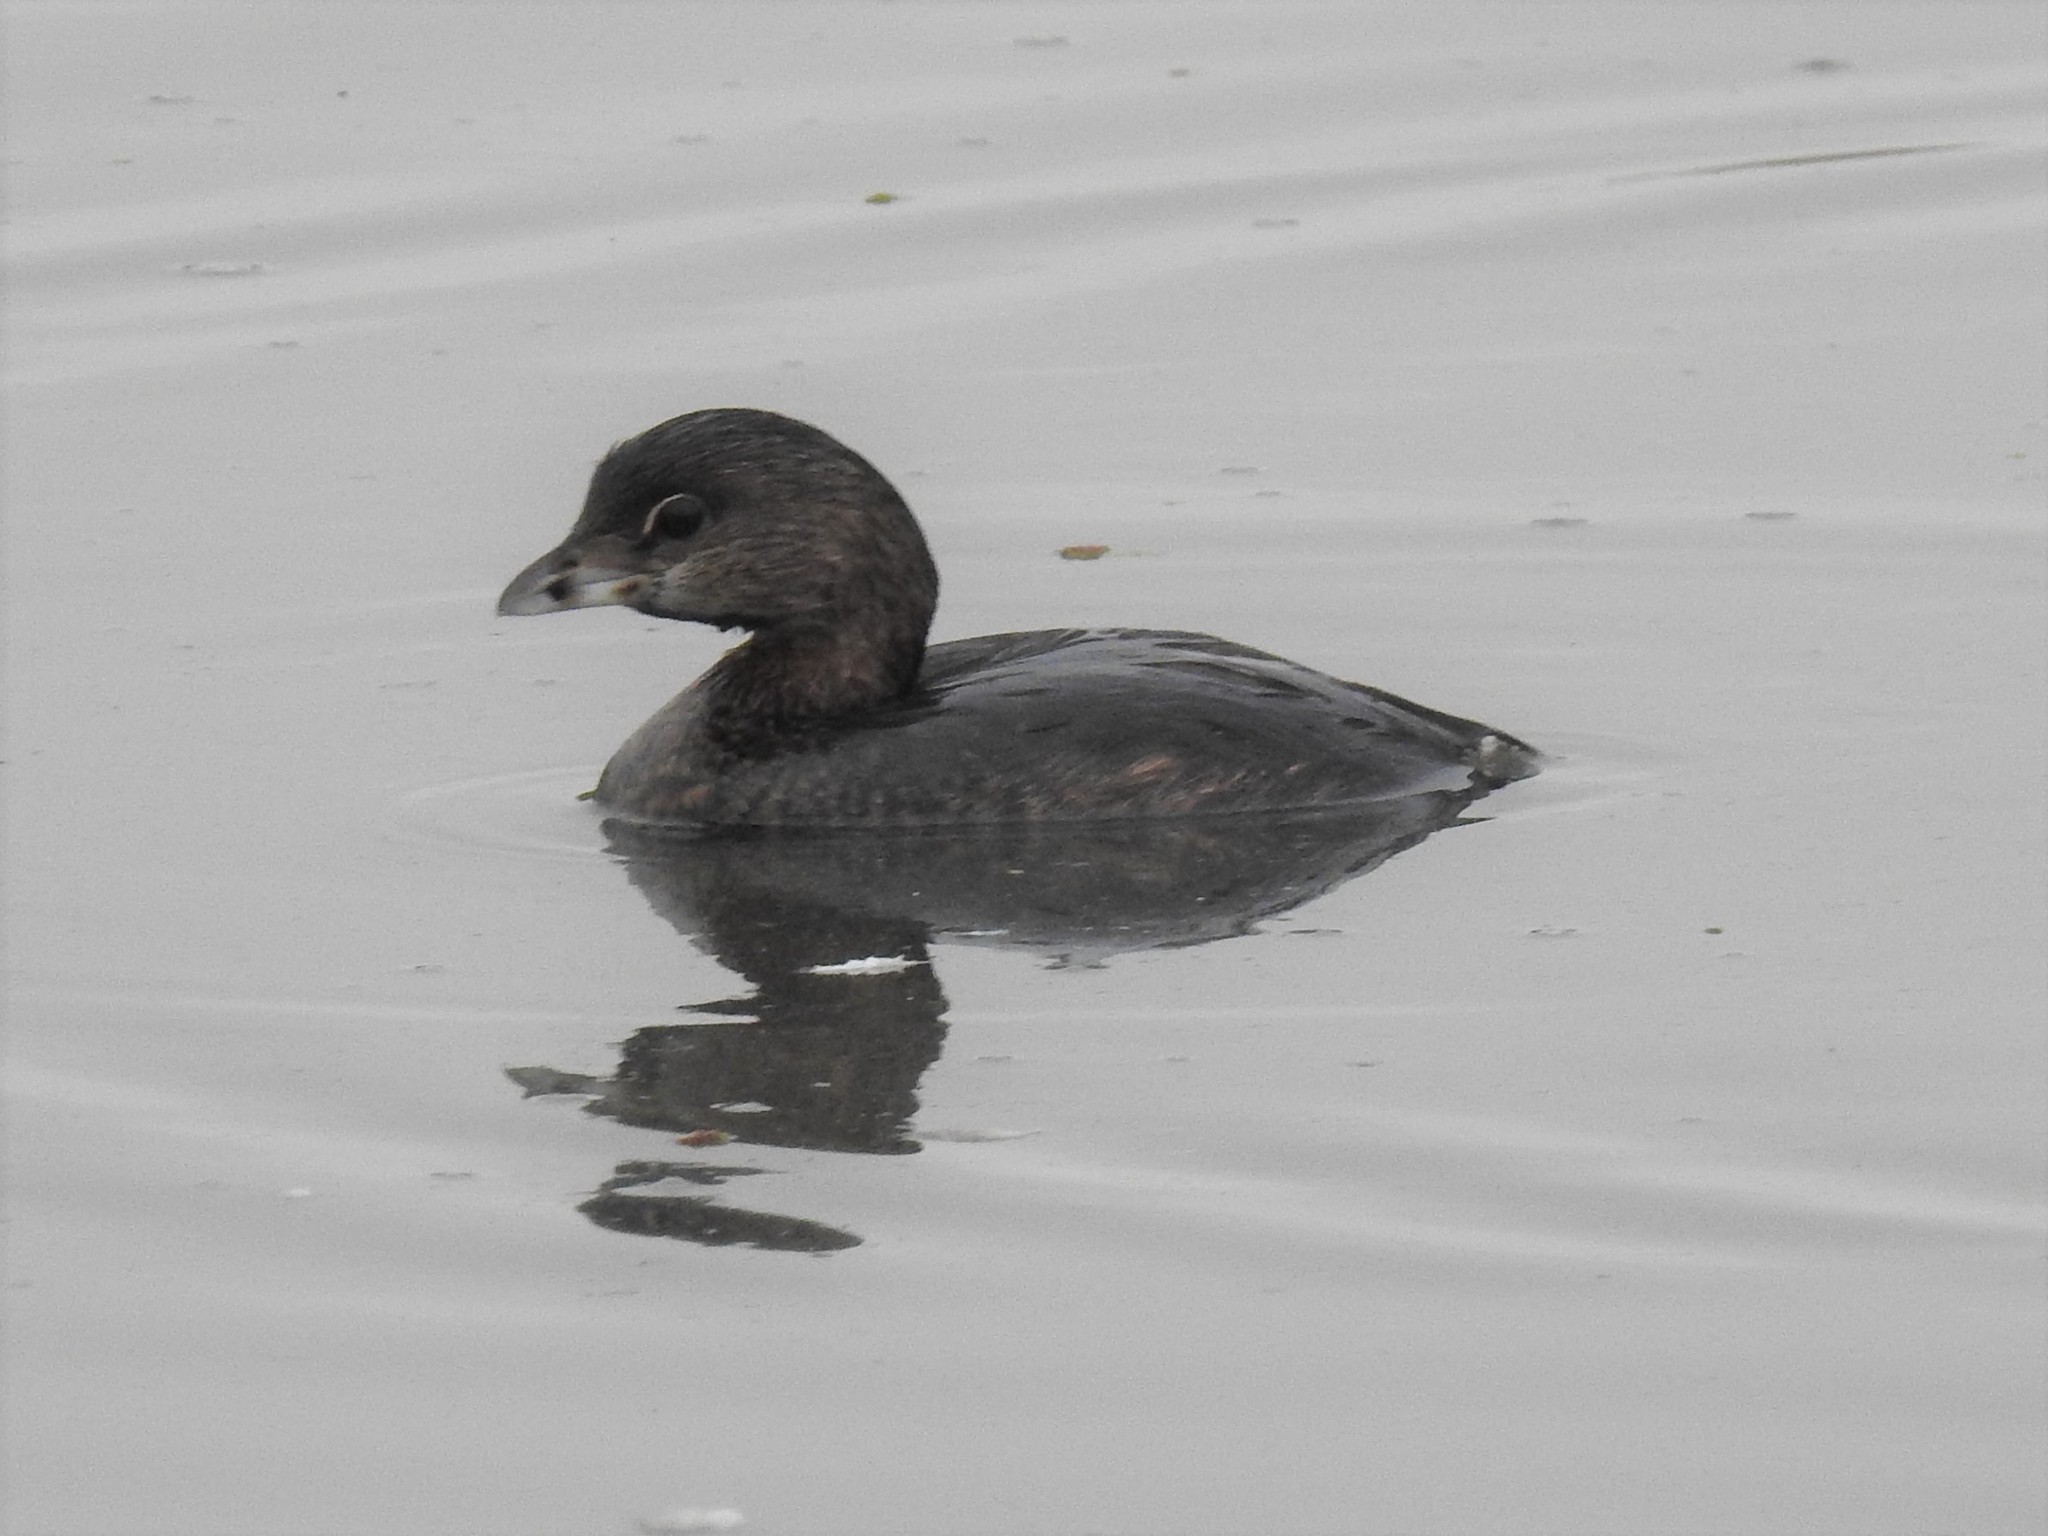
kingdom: Animalia
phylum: Chordata
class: Aves
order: Podicipediformes
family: Podicipedidae
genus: Podilymbus
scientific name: Podilymbus podiceps
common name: Pied-billed grebe
